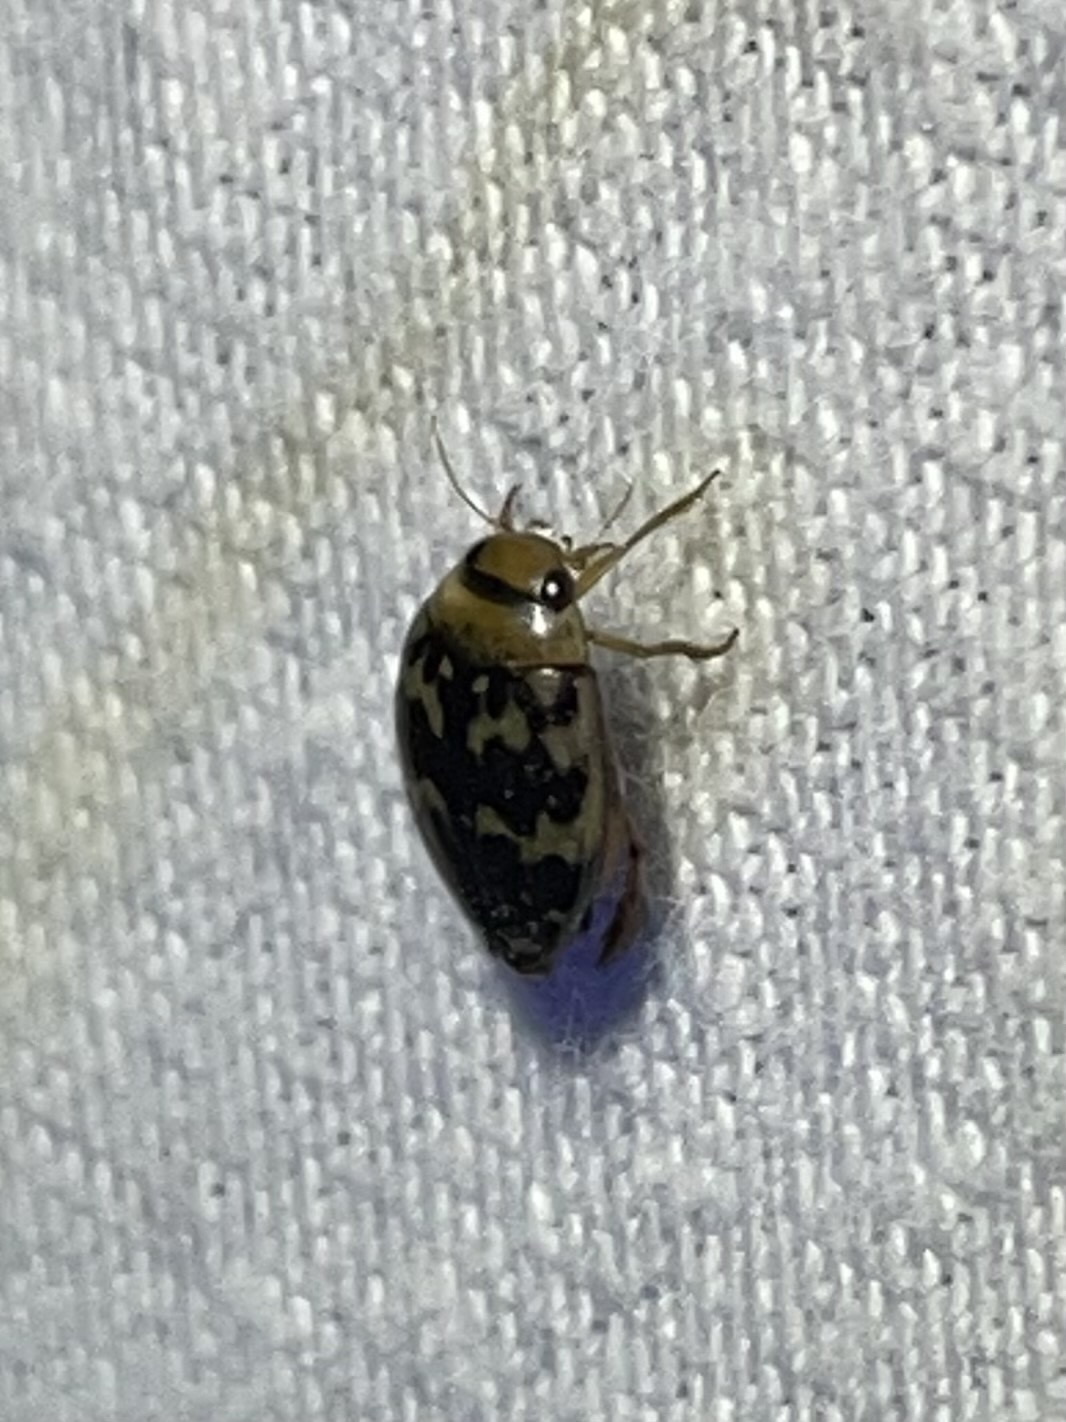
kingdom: Animalia
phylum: Arthropoda
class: Insecta
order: Coleoptera
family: Dytiscidae
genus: Laccophilus
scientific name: Laccophilus pictus
